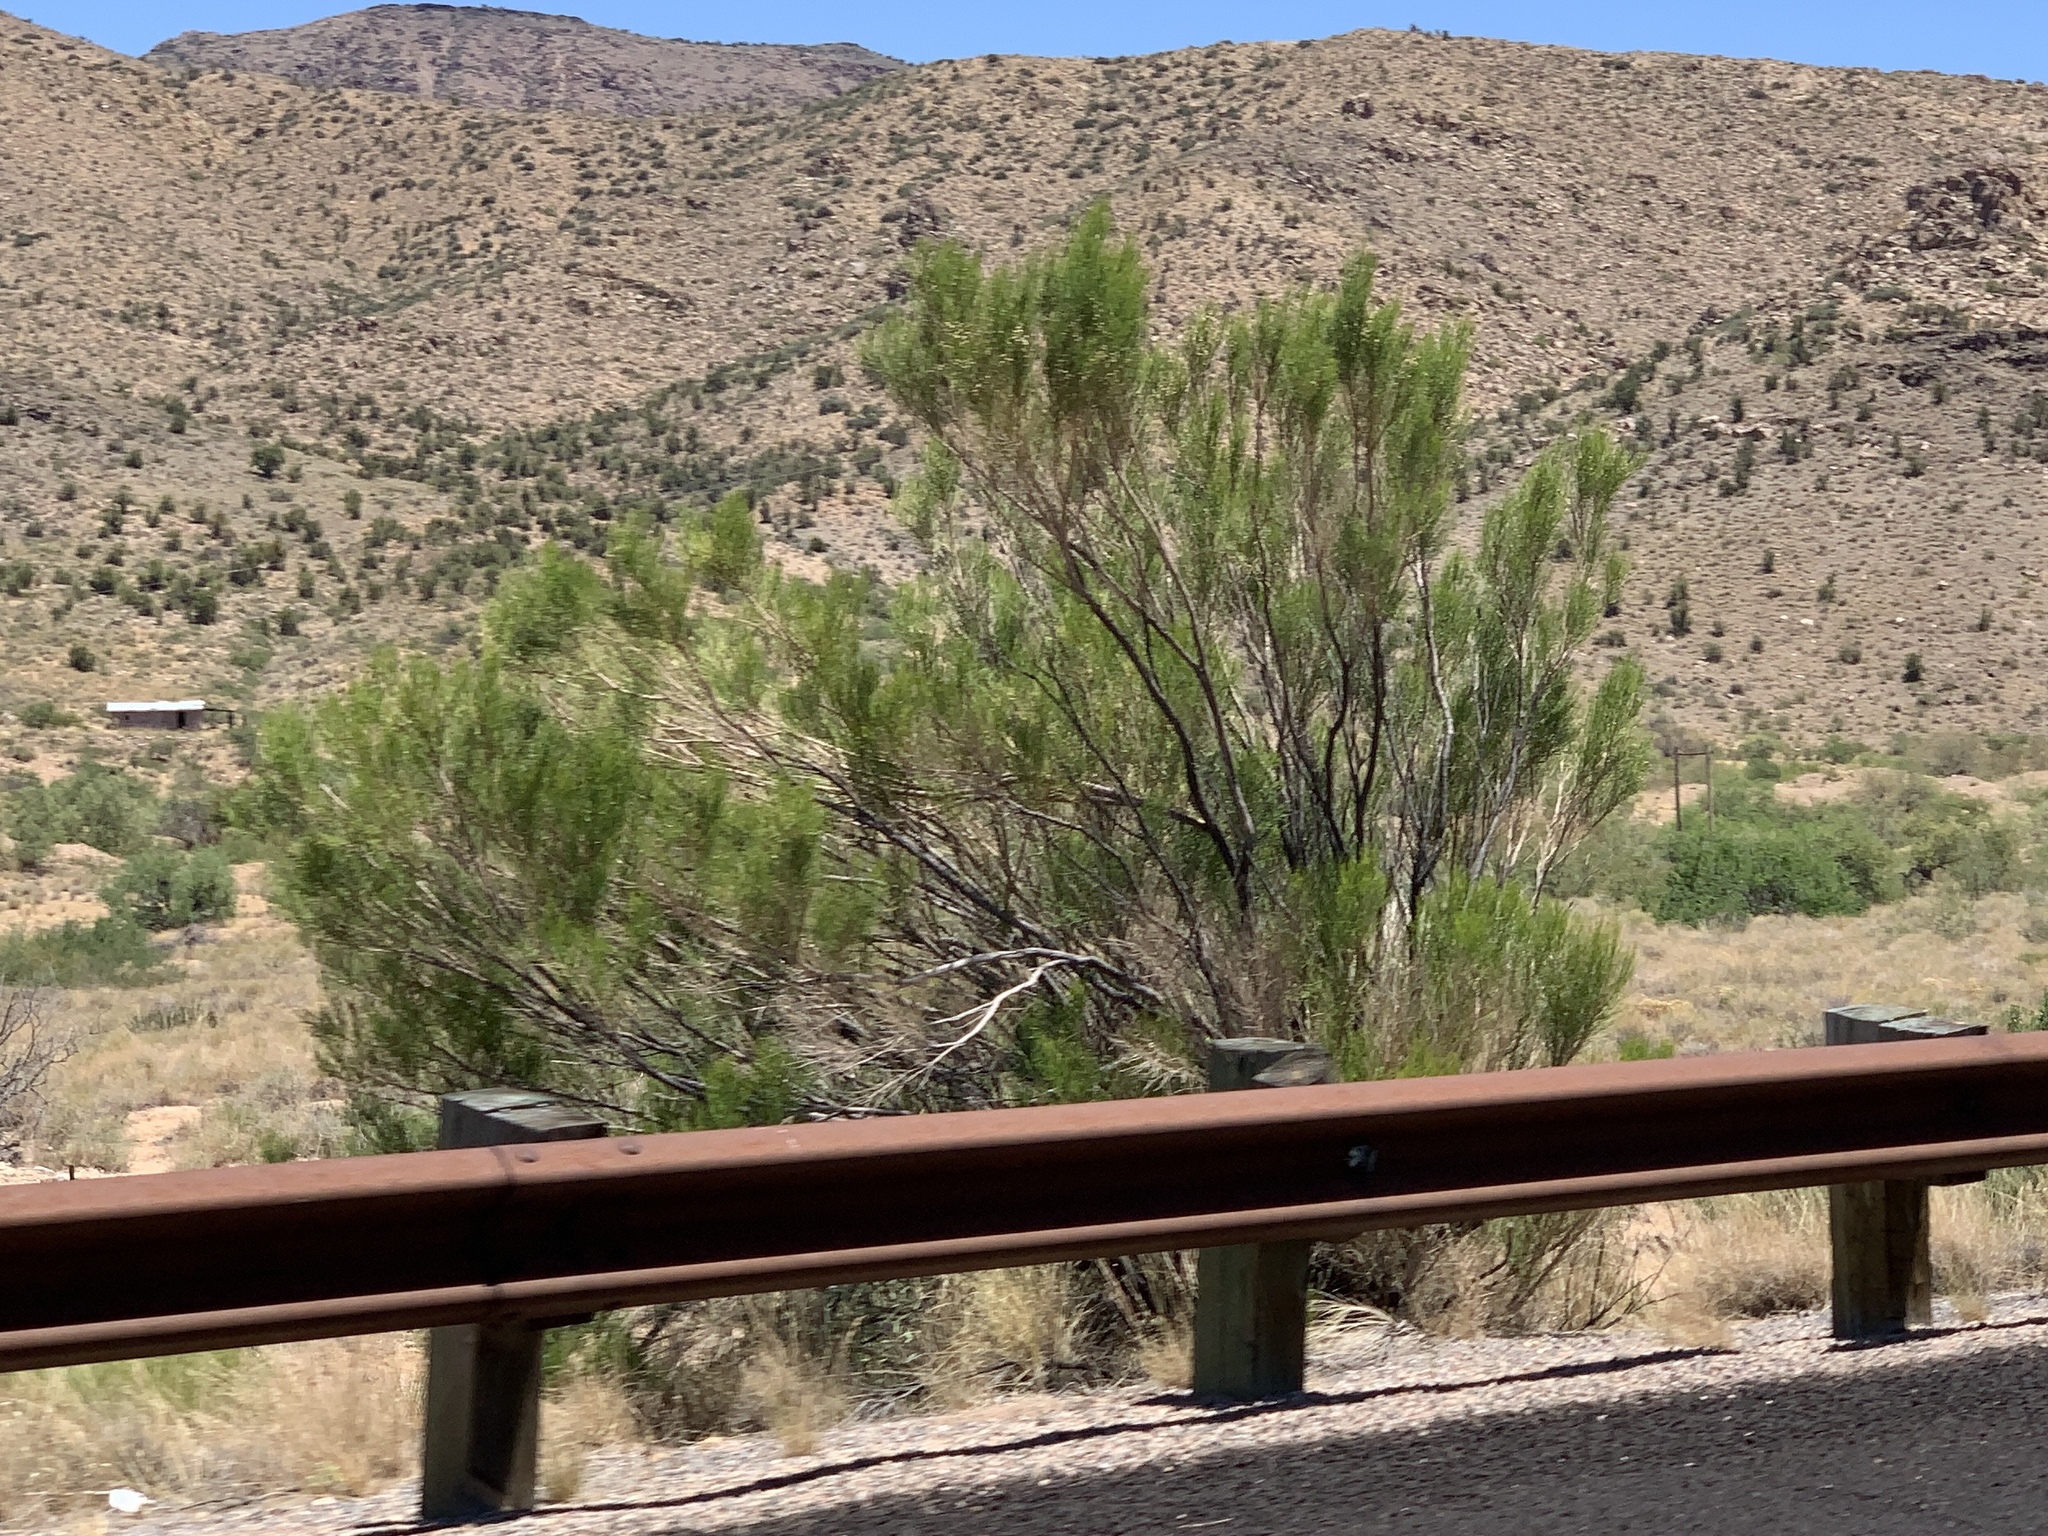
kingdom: Plantae
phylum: Tracheophyta
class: Magnoliopsida
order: Asterales
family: Asteraceae
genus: Baccharis
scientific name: Baccharis sarothroides
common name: Desert-broom
